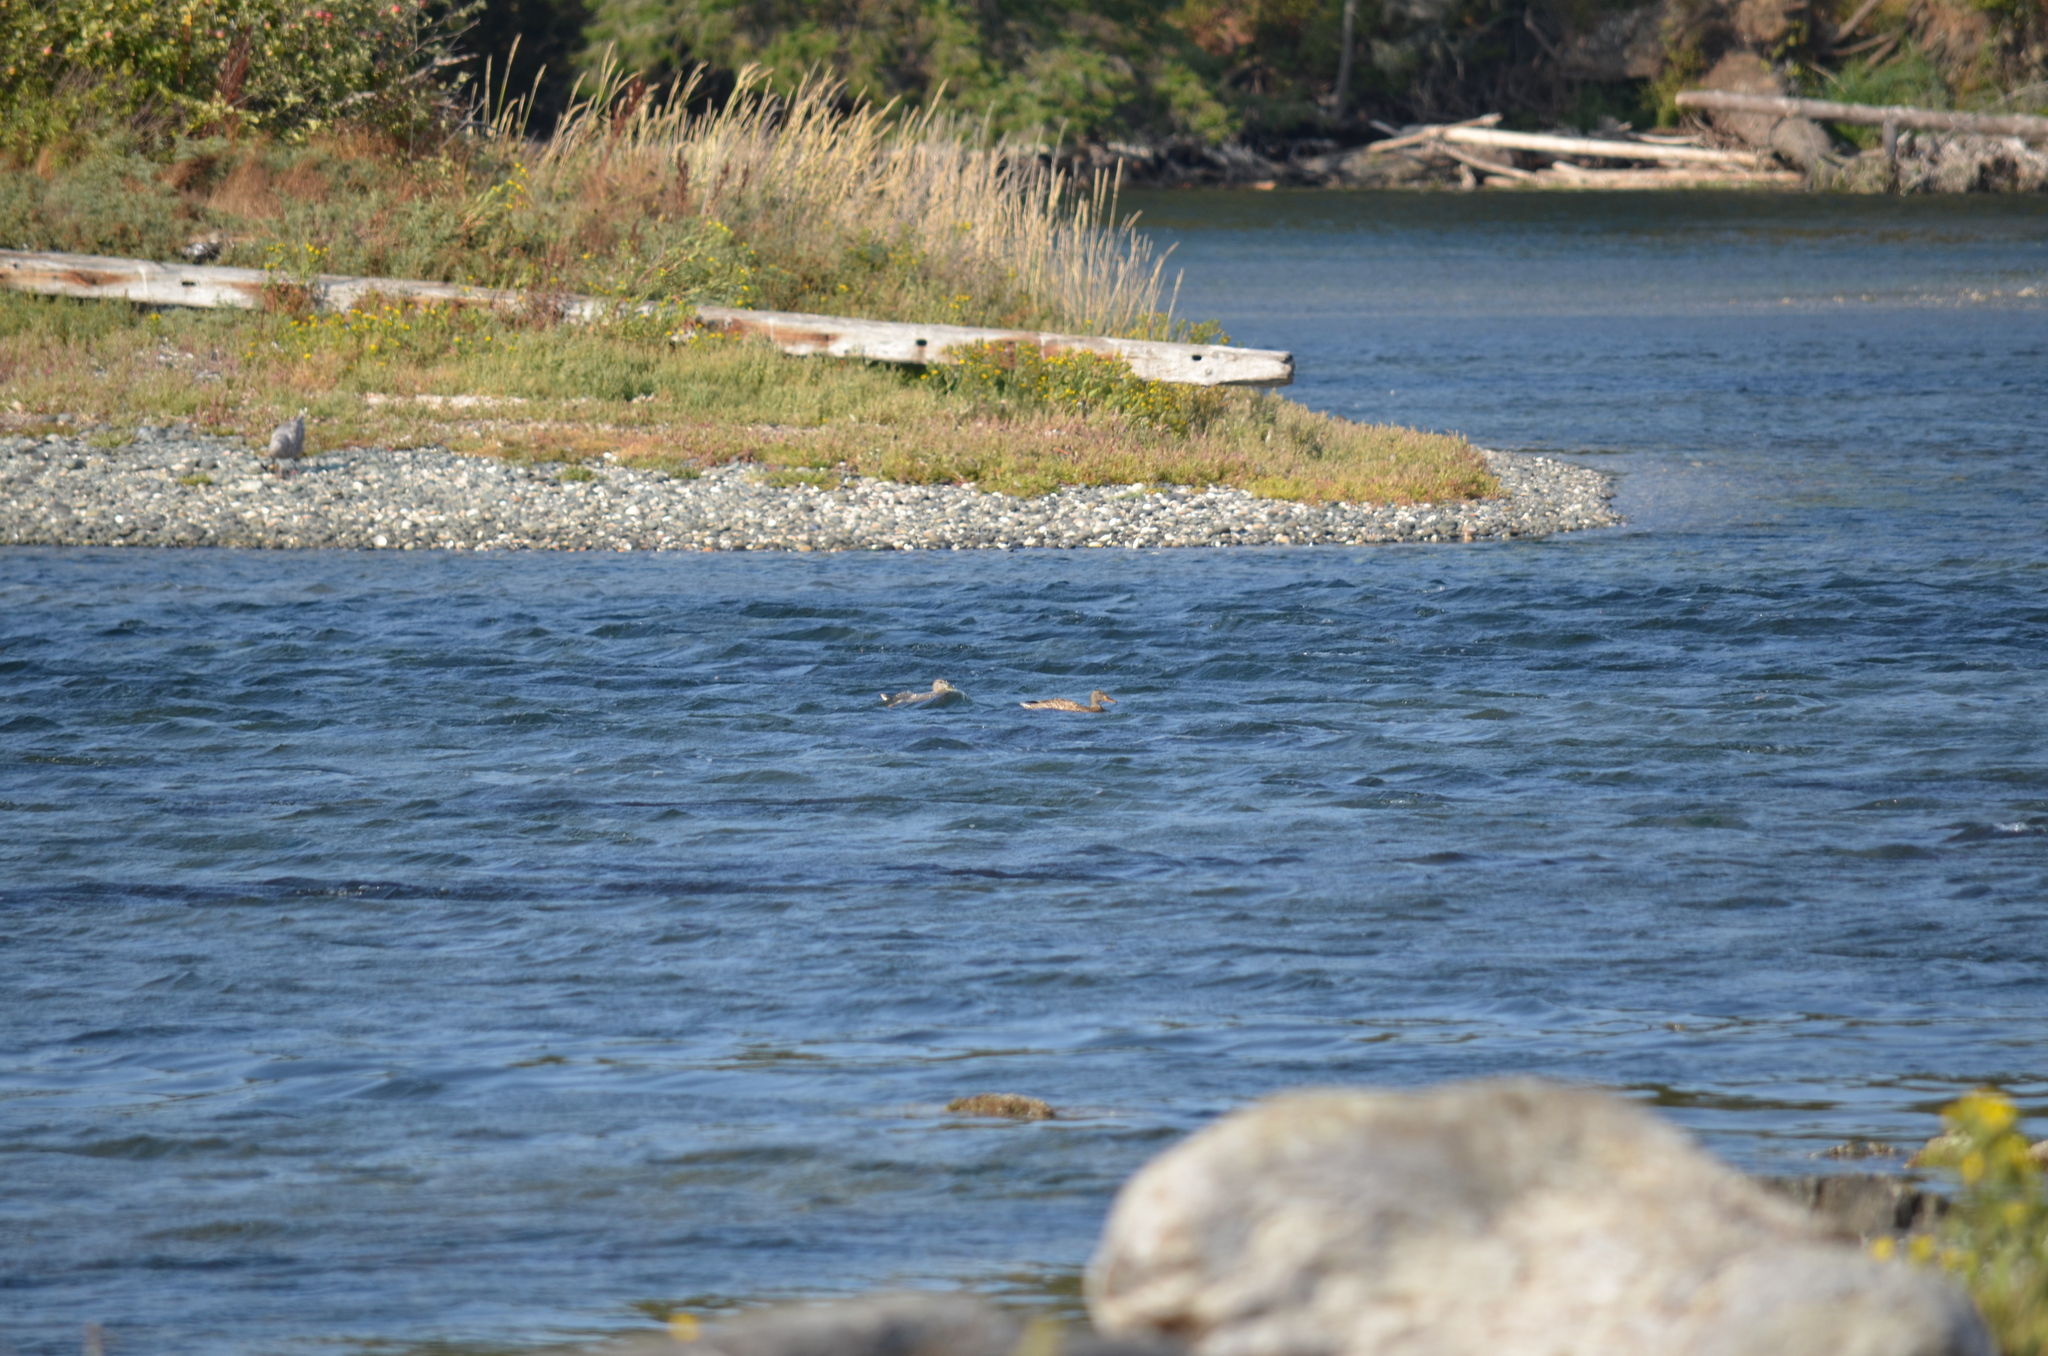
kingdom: Animalia
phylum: Chordata
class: Aves
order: Anseriformes
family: Anatidae
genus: Anas
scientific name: Anas platyrhynchos
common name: Mallard
